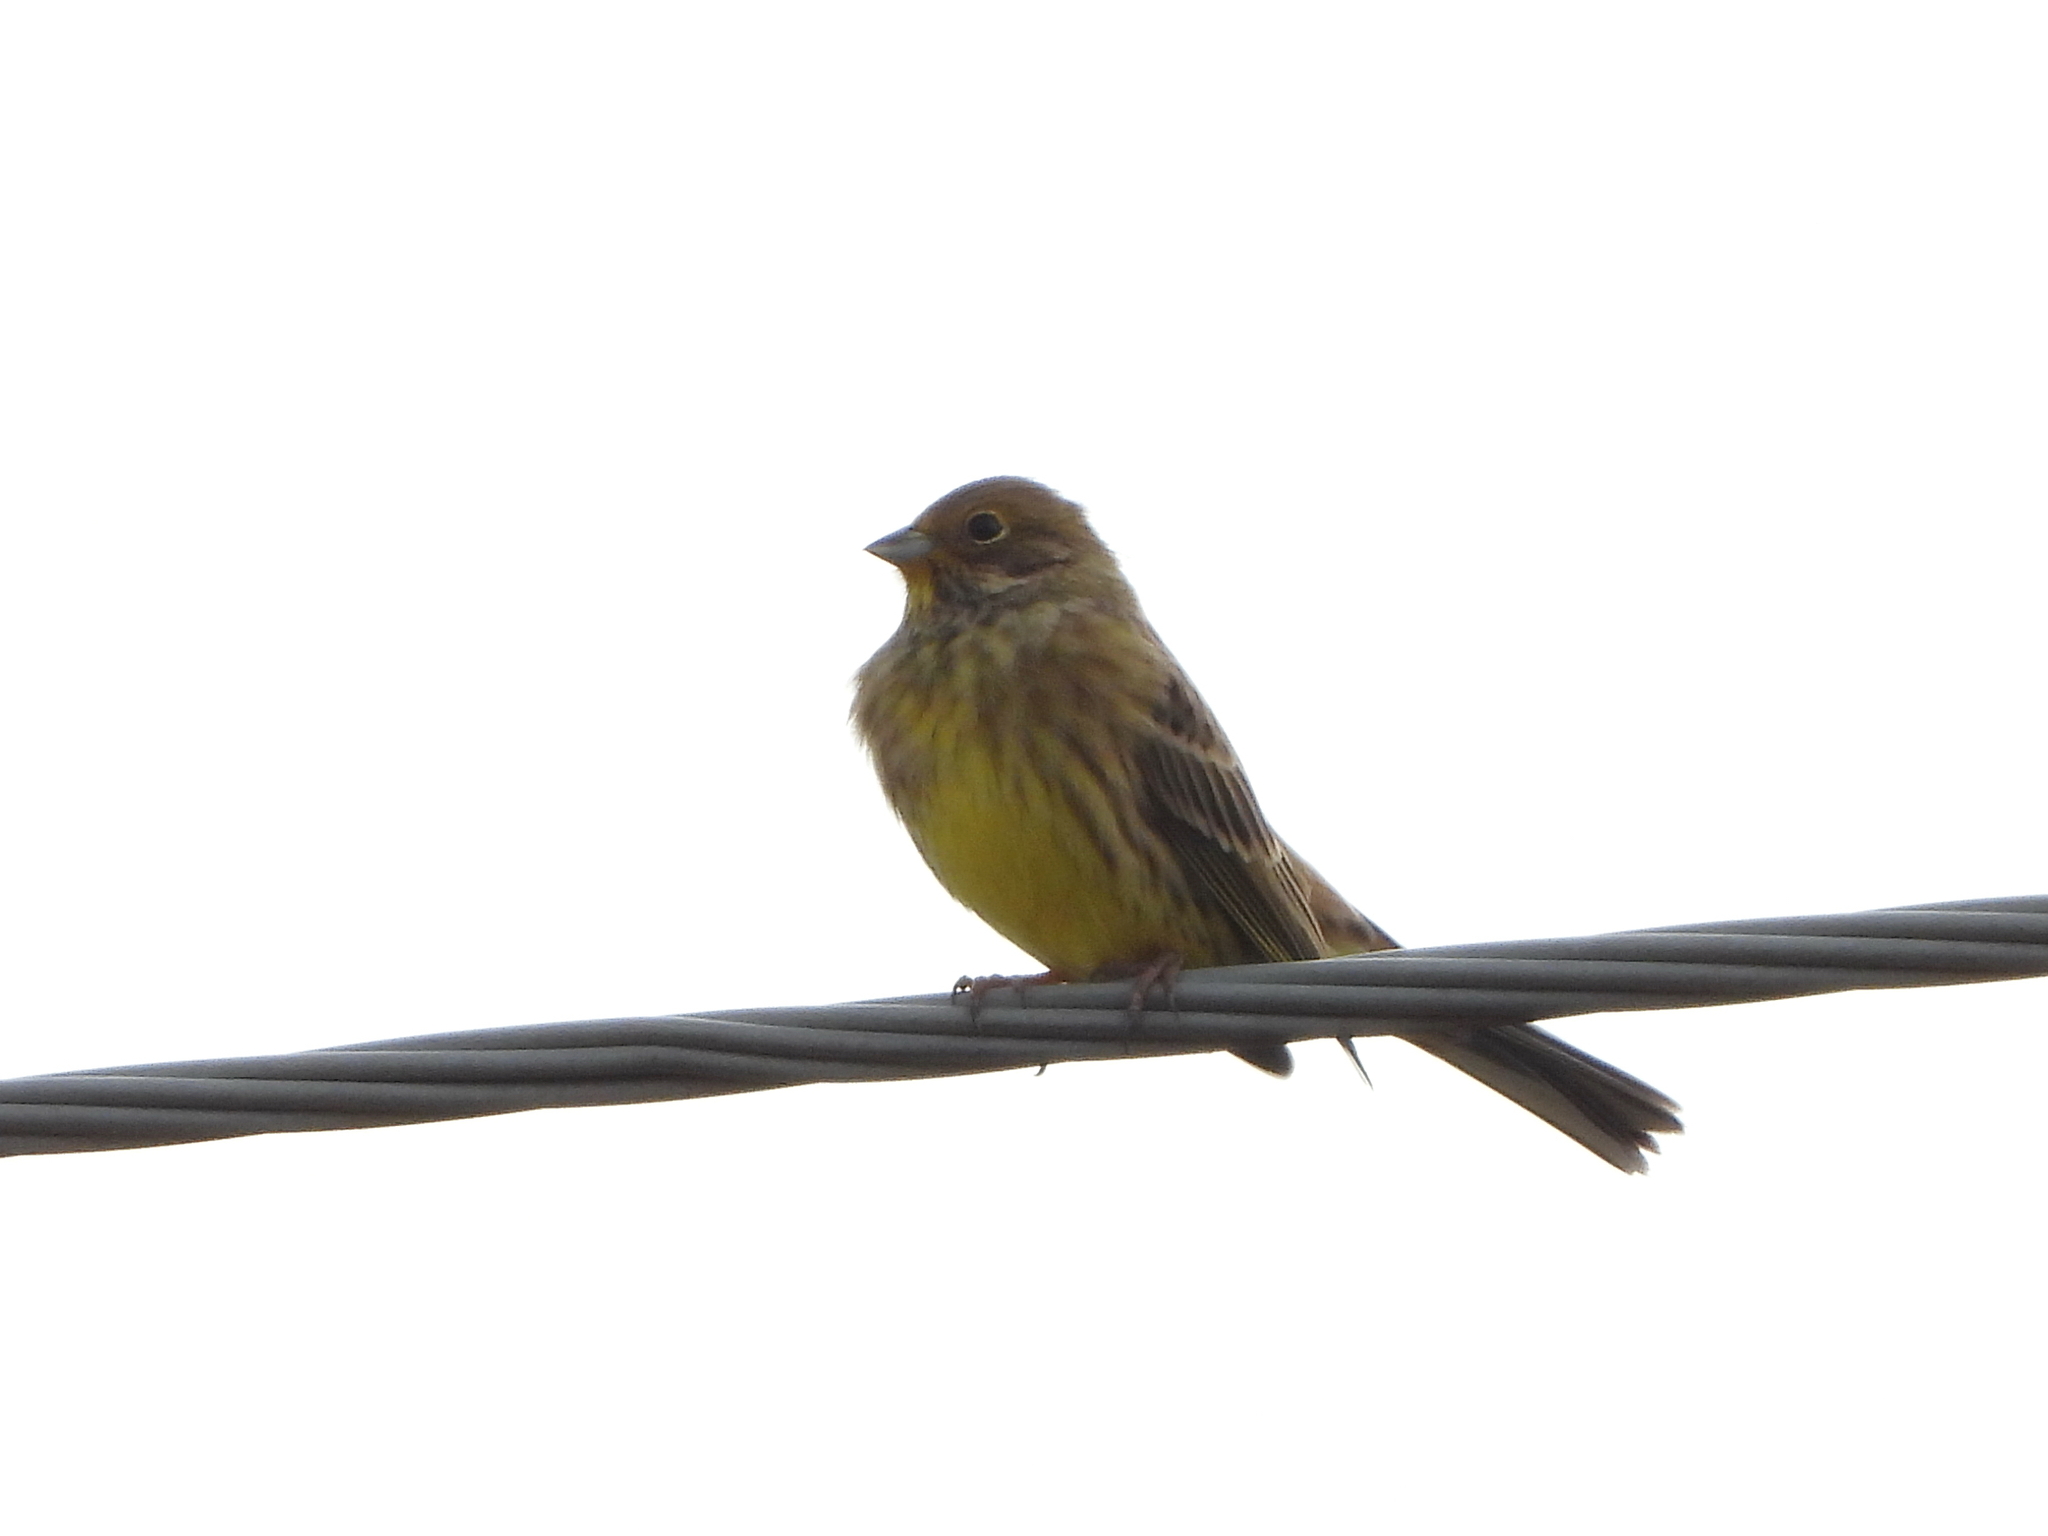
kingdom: Animalia
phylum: Chordata
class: Aves
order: Passeriformes
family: Emberizidae
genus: Emberiza
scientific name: Emberiza citrinella
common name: Yellowhammer
